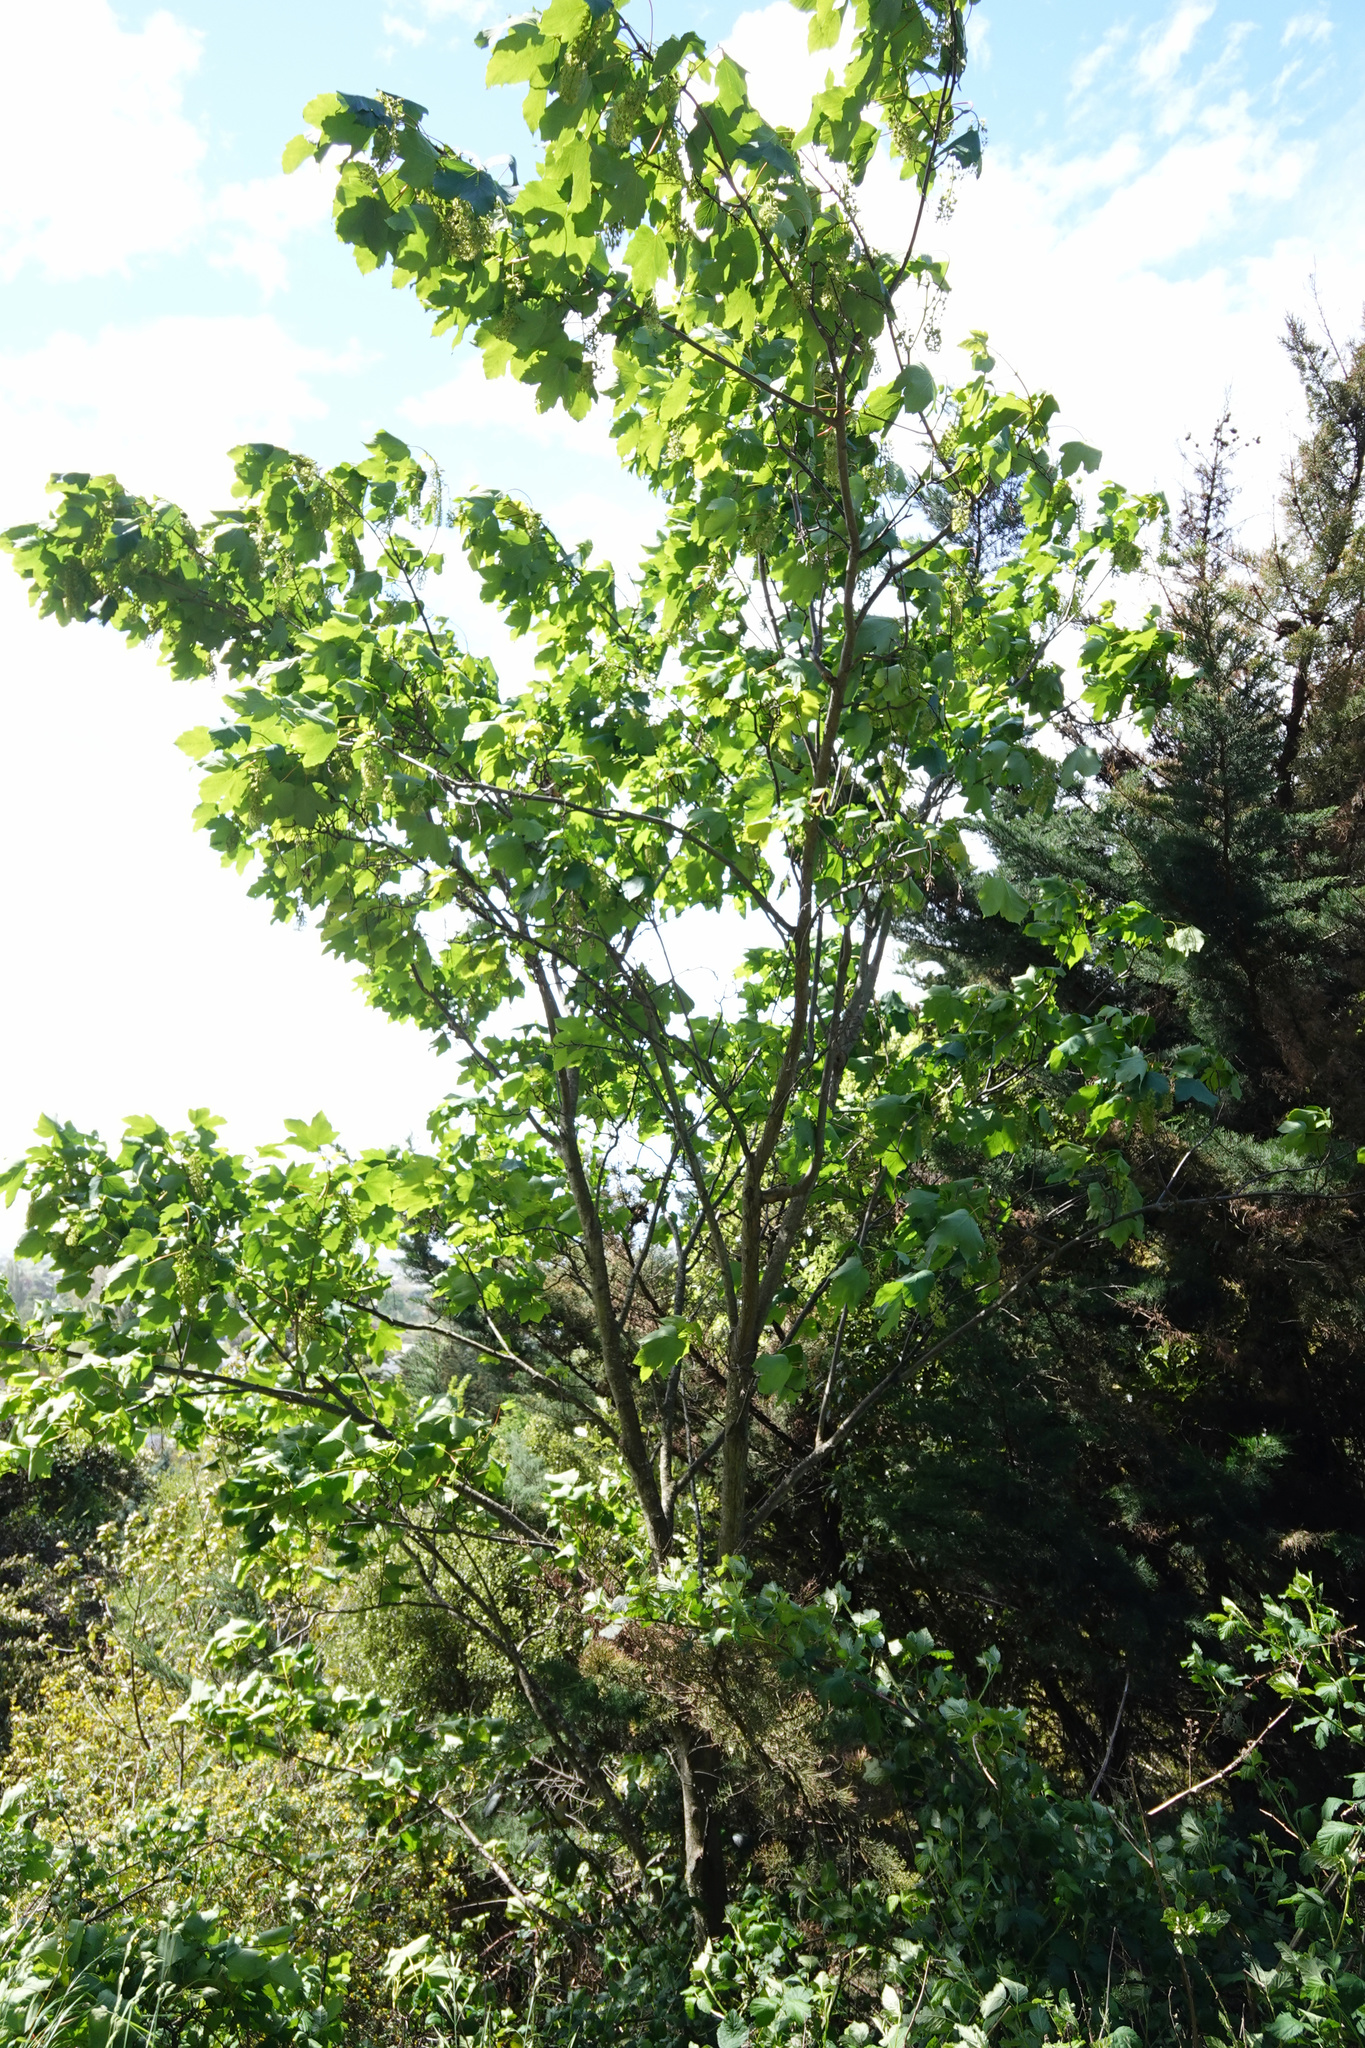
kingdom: Plantae
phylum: Tracheophyta
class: Magnoliopsida
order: Sapindales
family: Sapindaceae
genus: Acer
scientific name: Acer pseudoplatanus
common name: Sycamore
